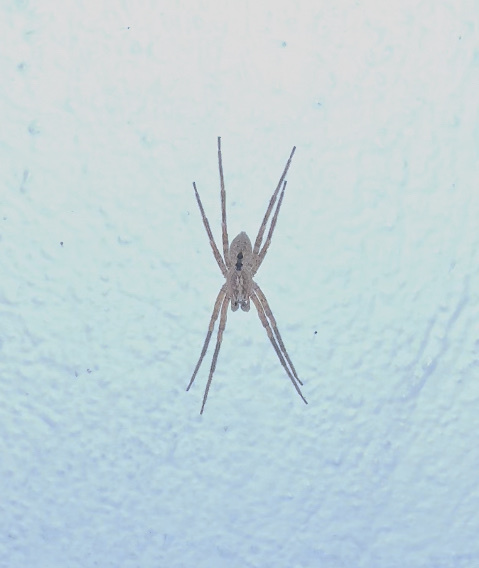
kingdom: Animalia
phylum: Arthropoda
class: Arachnida
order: Araneae
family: Zoropsidae
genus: Zoropsis
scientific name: Zoropsis spinimana
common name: Zoropsid spider
